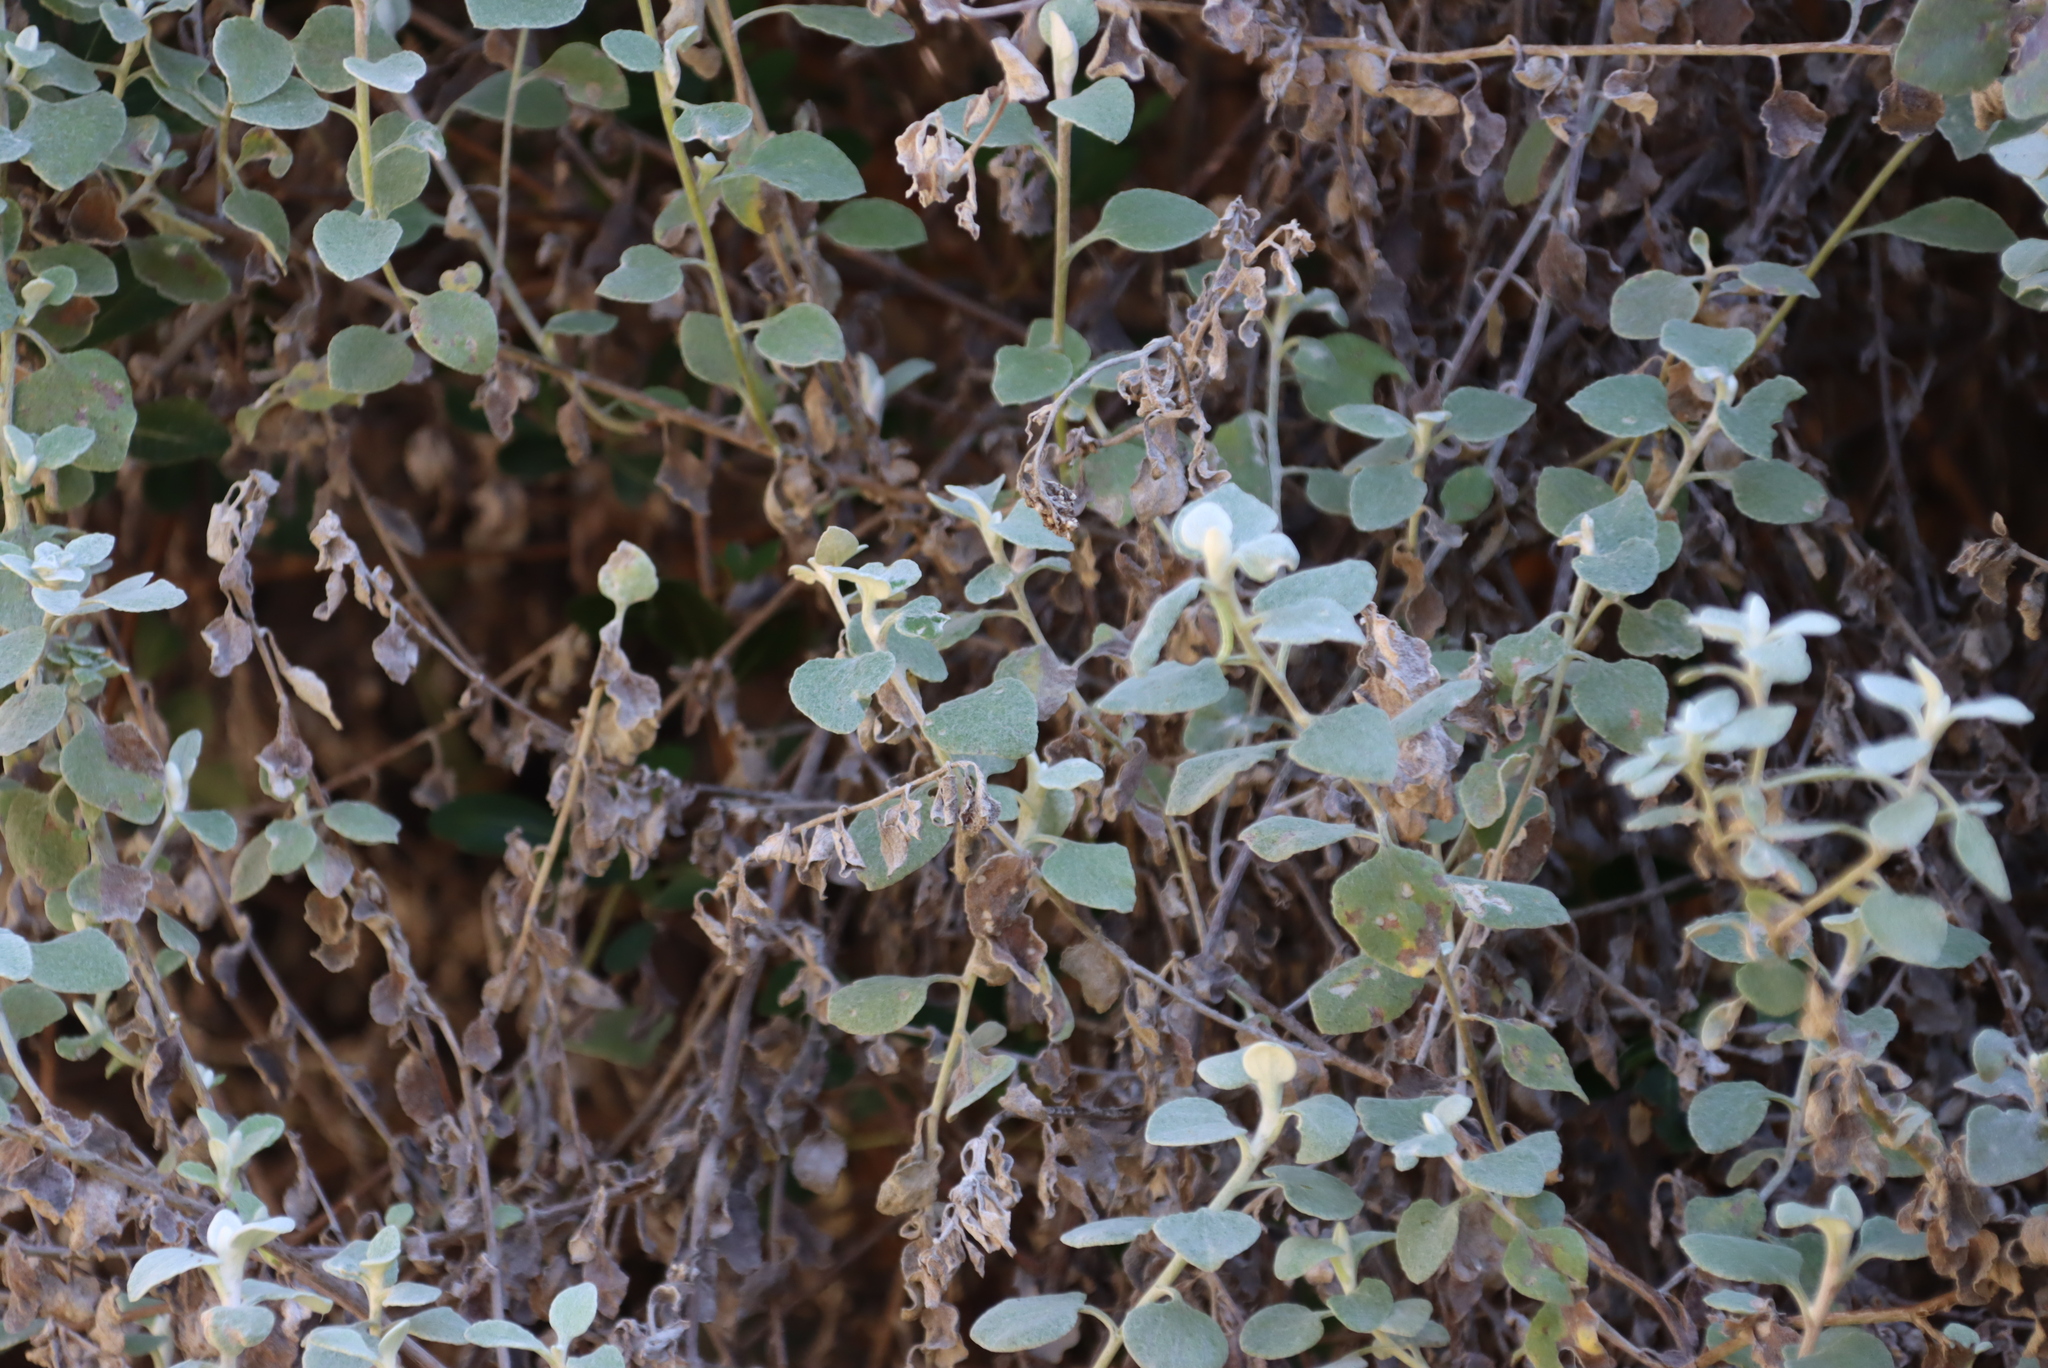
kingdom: Plantae
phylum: Tracheophyta
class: Magnoliopsida
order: Asterales
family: Asteraceae
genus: Helichrysum
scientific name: Helichrysum petiolare
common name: Licorice-plant
